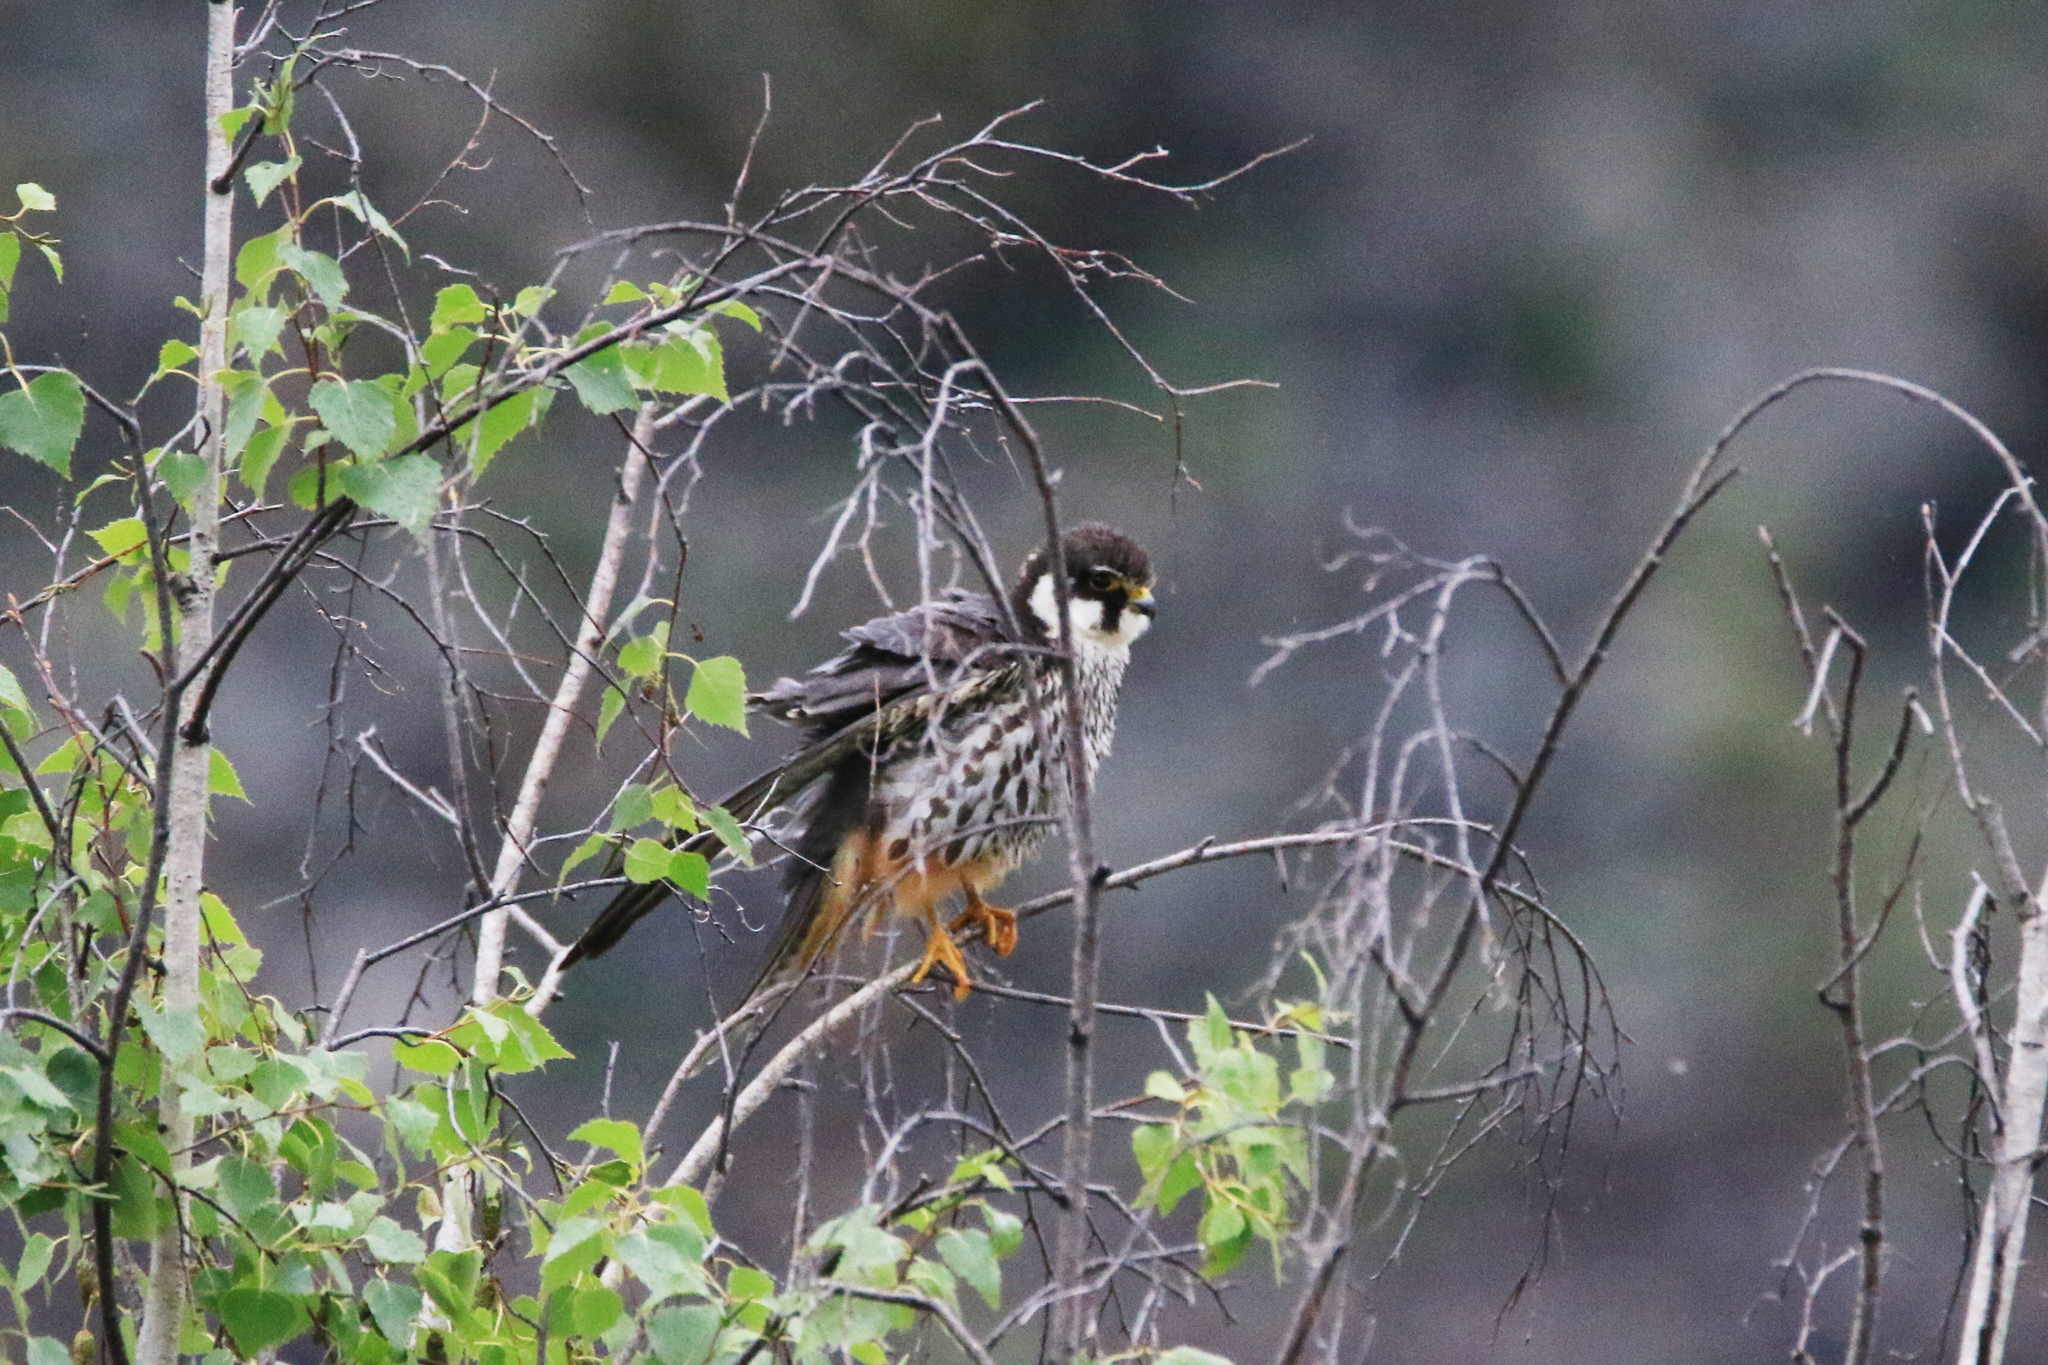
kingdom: Animalia
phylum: Chordata
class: Aves
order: Falconiformes
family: Falconidae
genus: Falco
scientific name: Falco subbuteo
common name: Eurasian hobby
